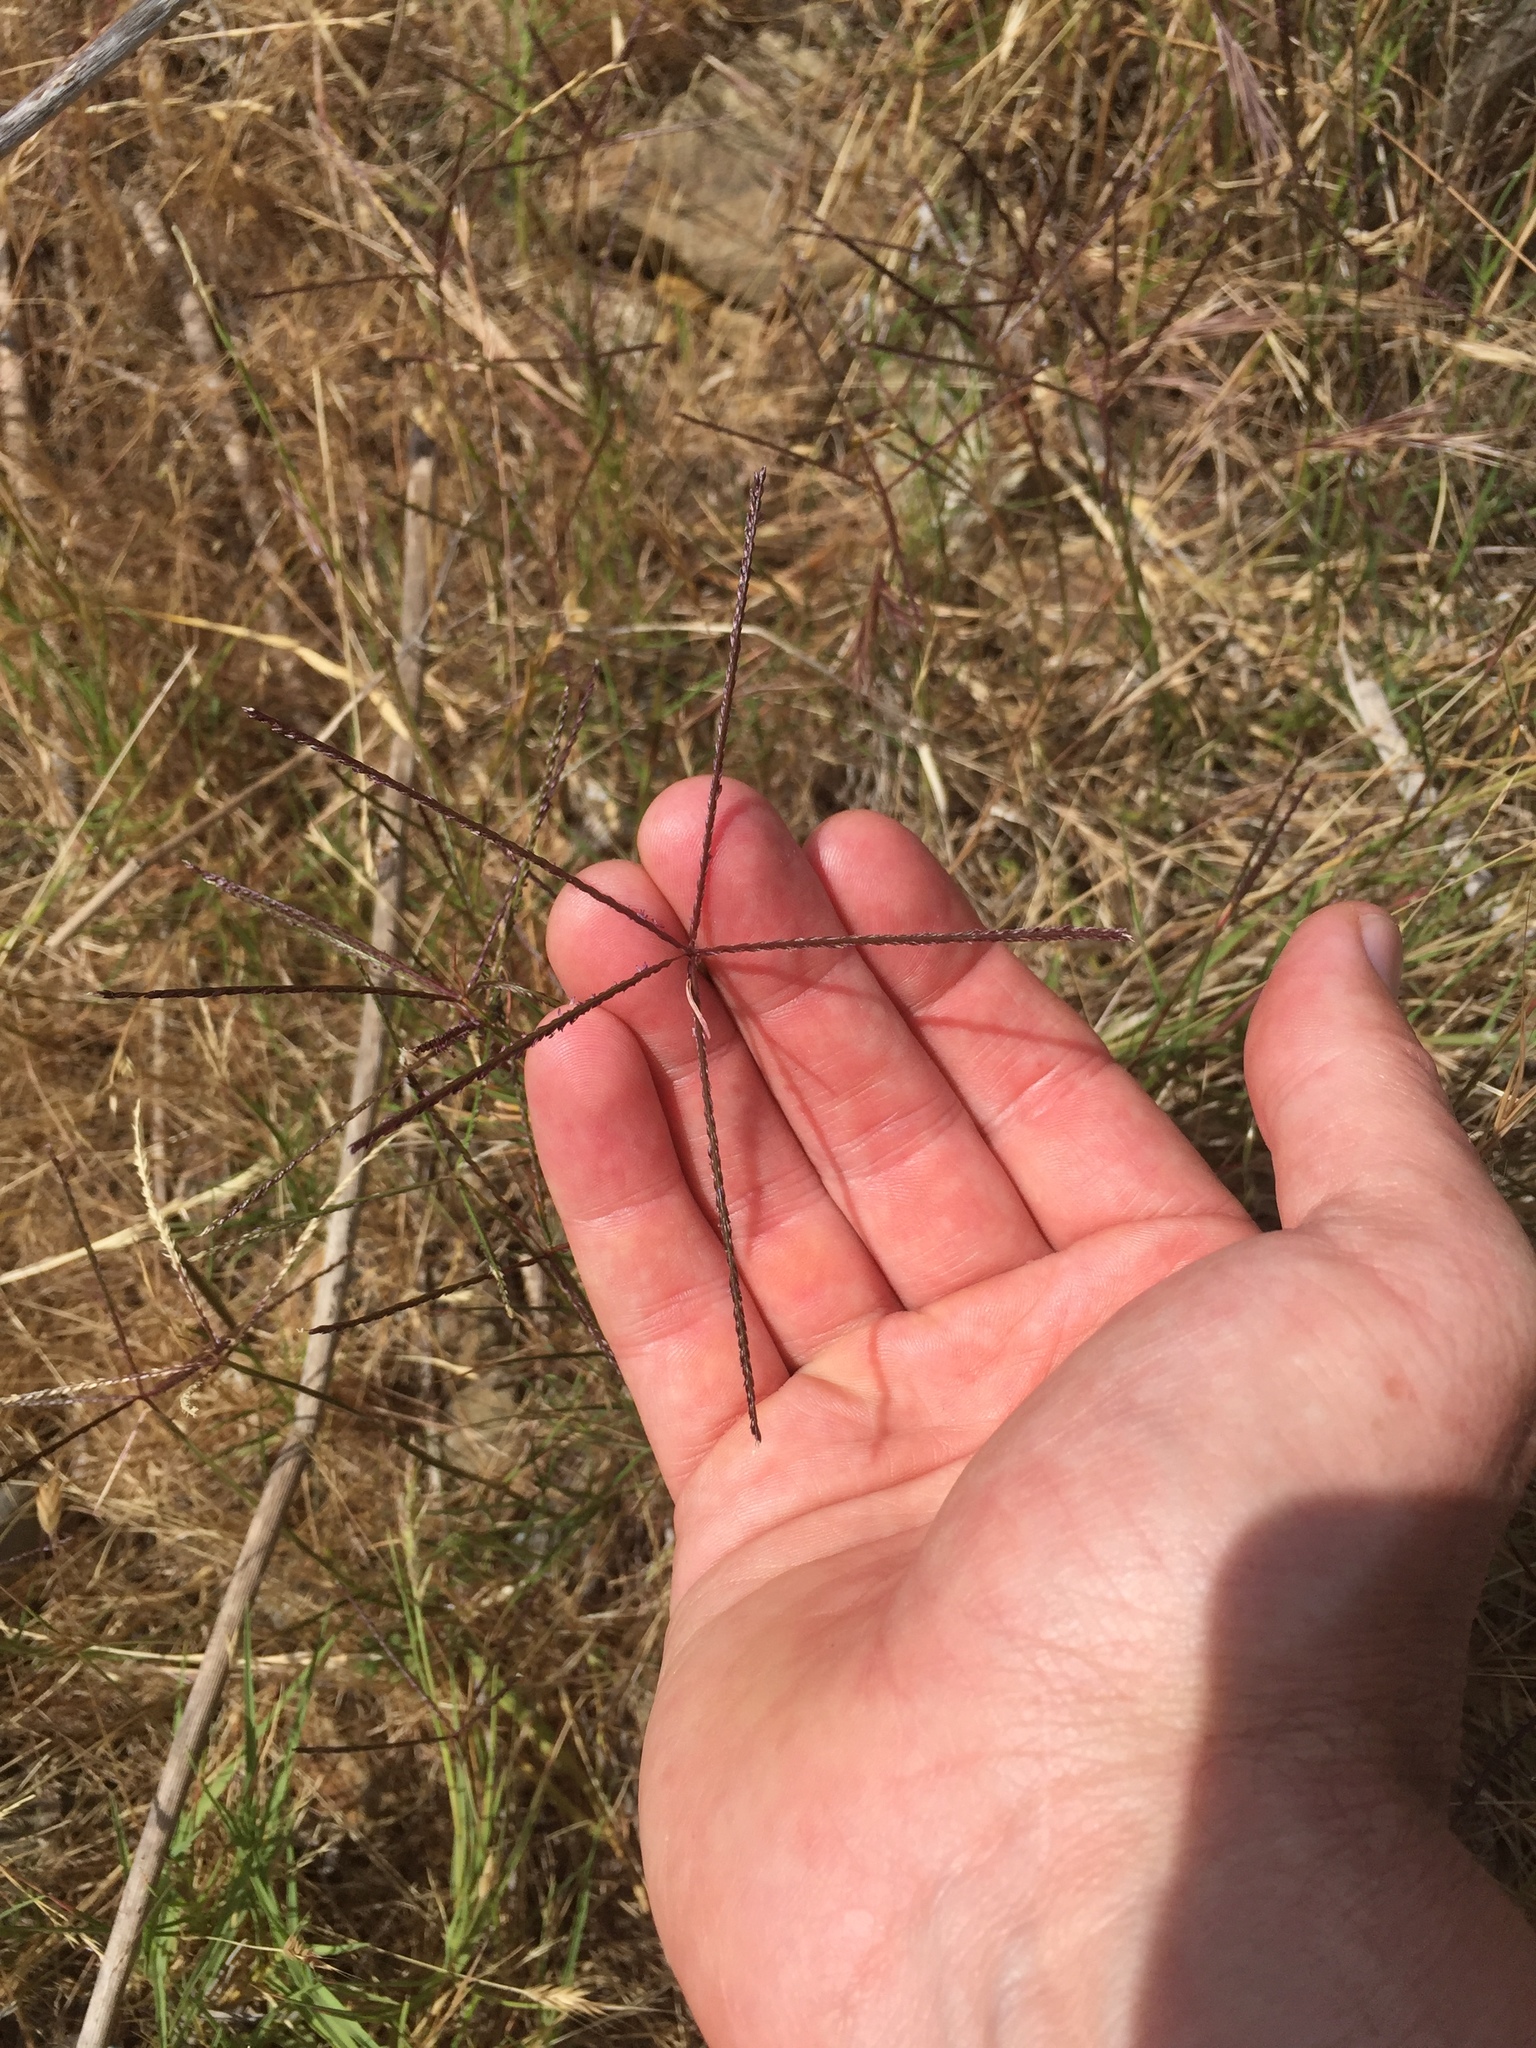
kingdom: Plantae
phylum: Tracheophyta
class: Liliopsida
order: Poales
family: Poaceae
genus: Cynodon
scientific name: Cynodon dactylon
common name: Bermuda grass
